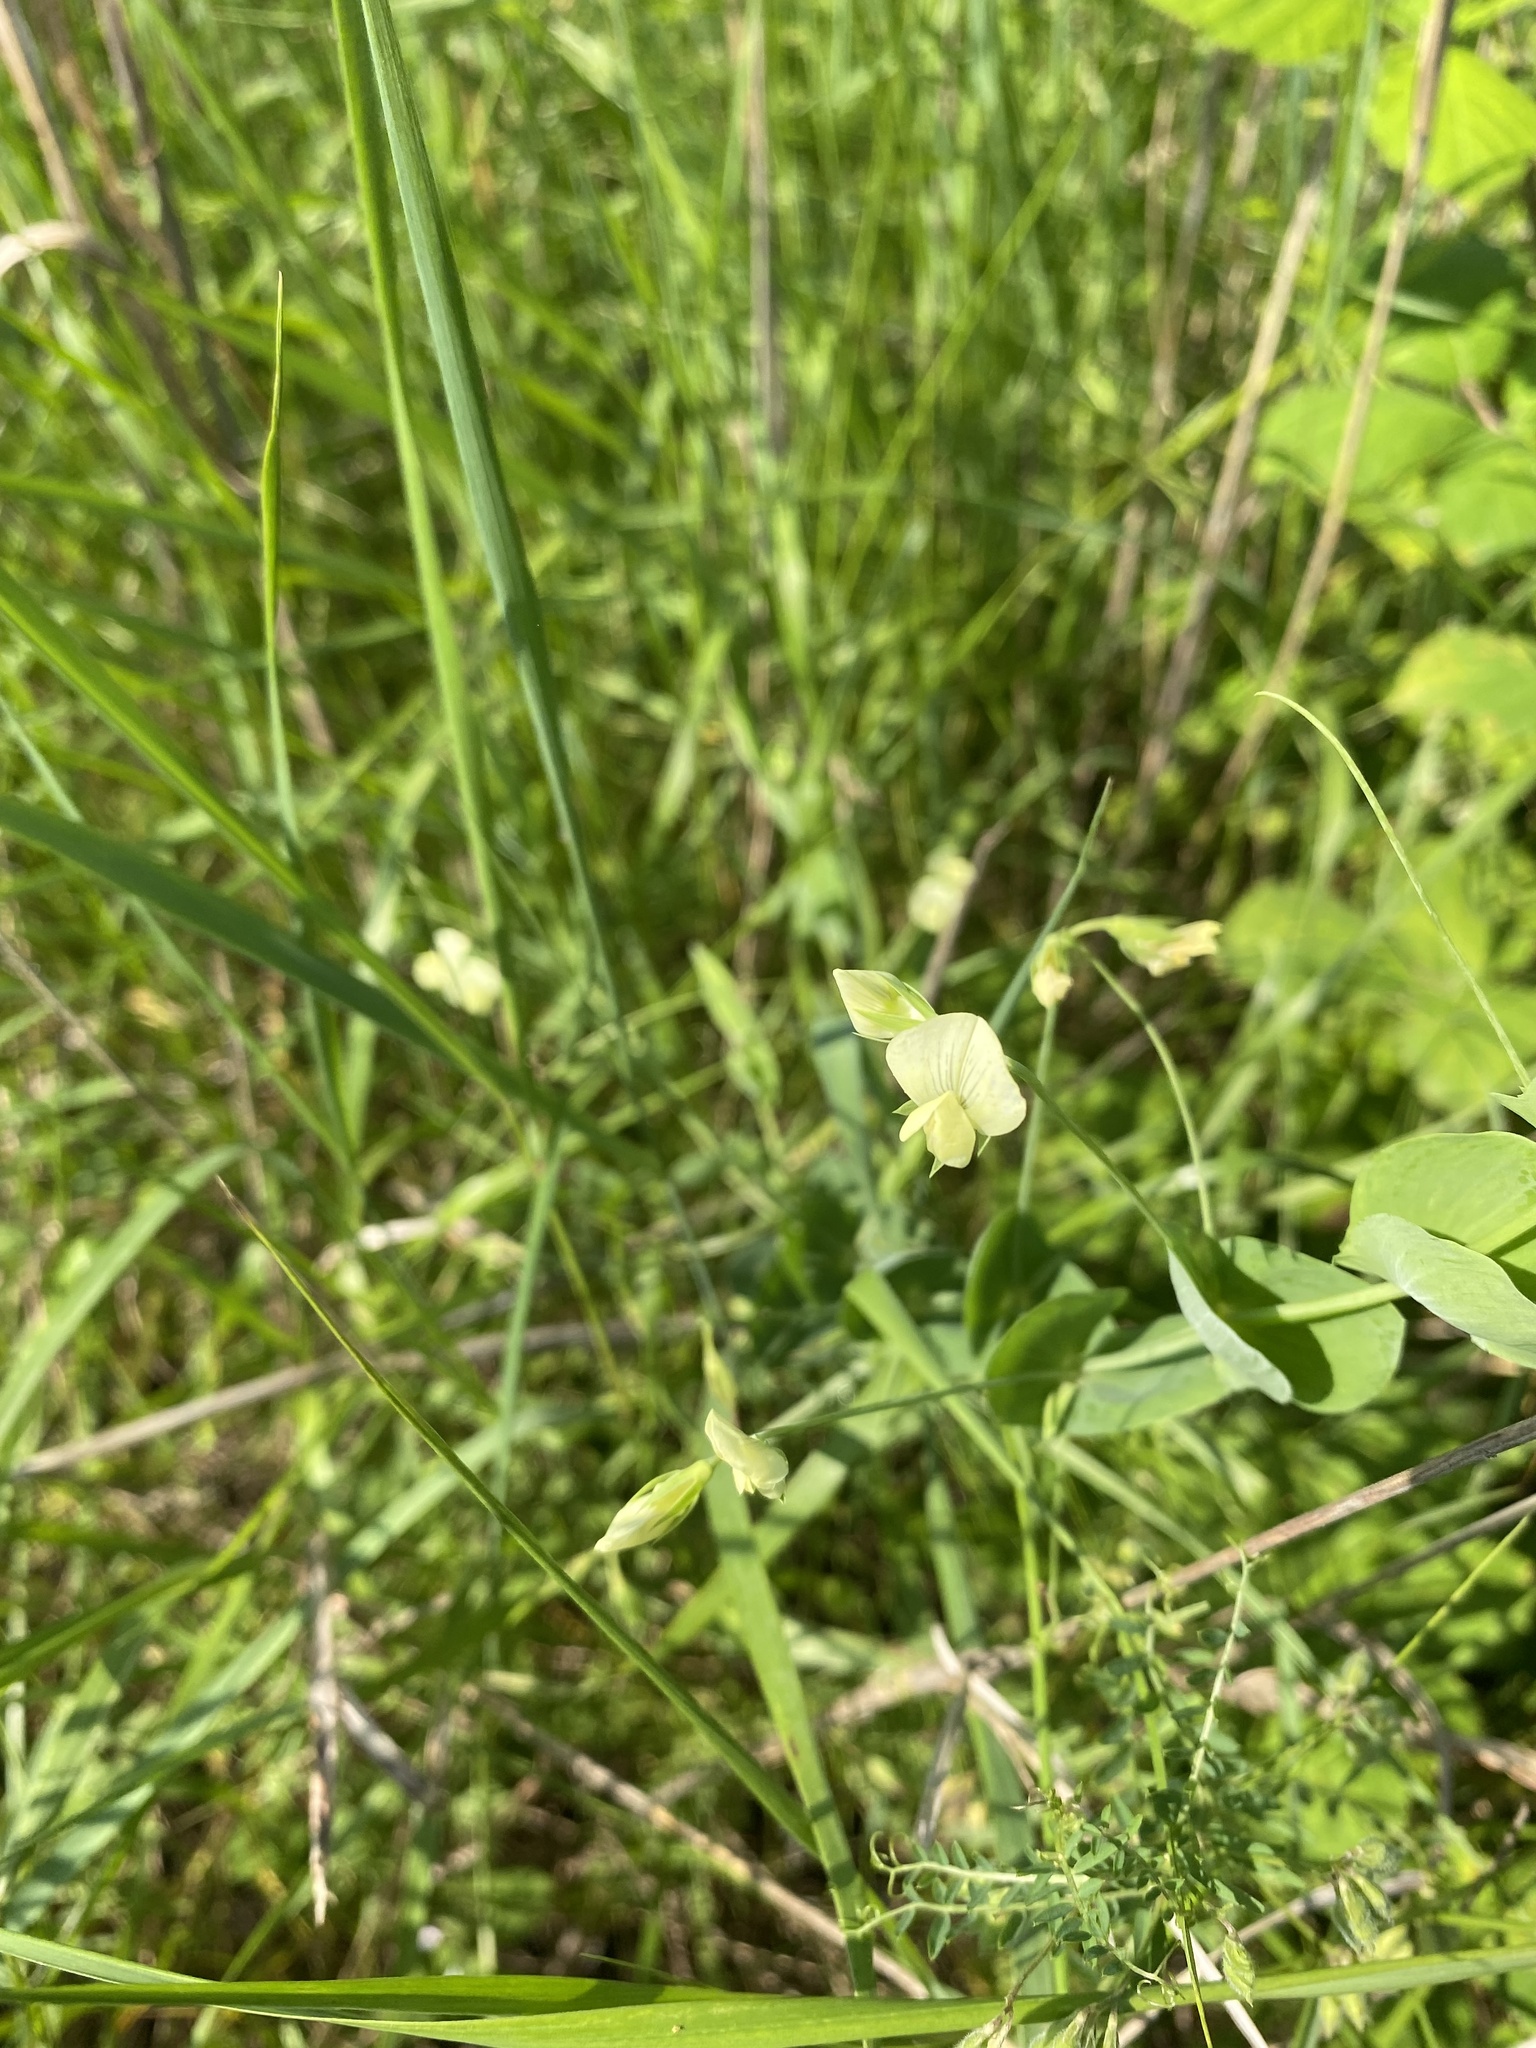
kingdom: Plantae
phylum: Tracheophyta
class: Magnoliopsida
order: Fabales
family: Fabaceae
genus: Lathyrus
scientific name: Lathyrus aphaca
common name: Yellow vetchling
